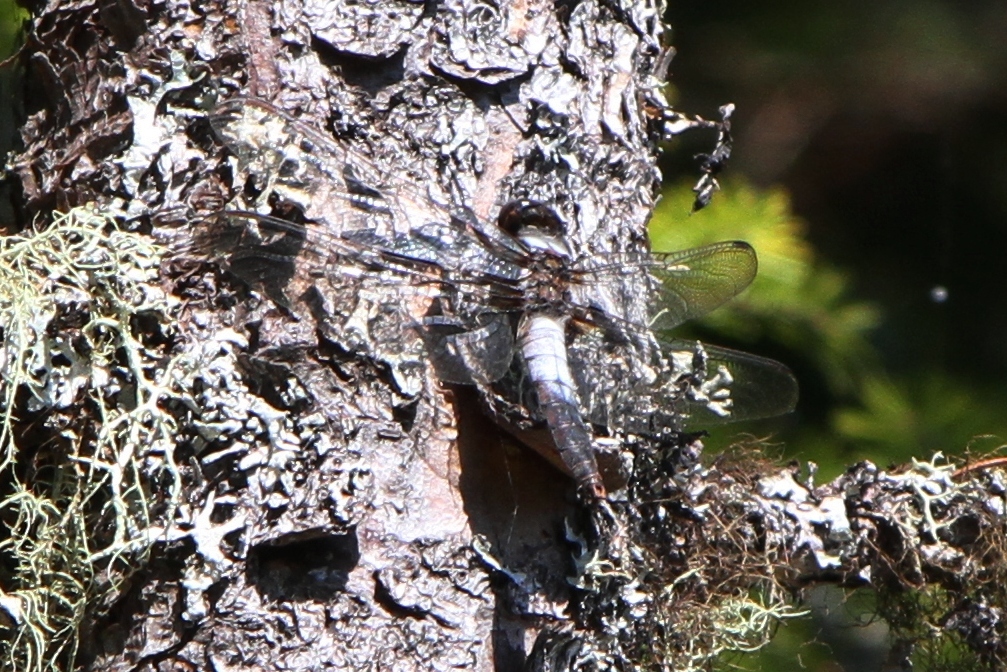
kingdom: Animalia
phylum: Arthropoda
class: Insecta
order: Odonata
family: Libellulidae
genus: Ladona
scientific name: Ladona julia
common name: Chalk-fronted corporal
